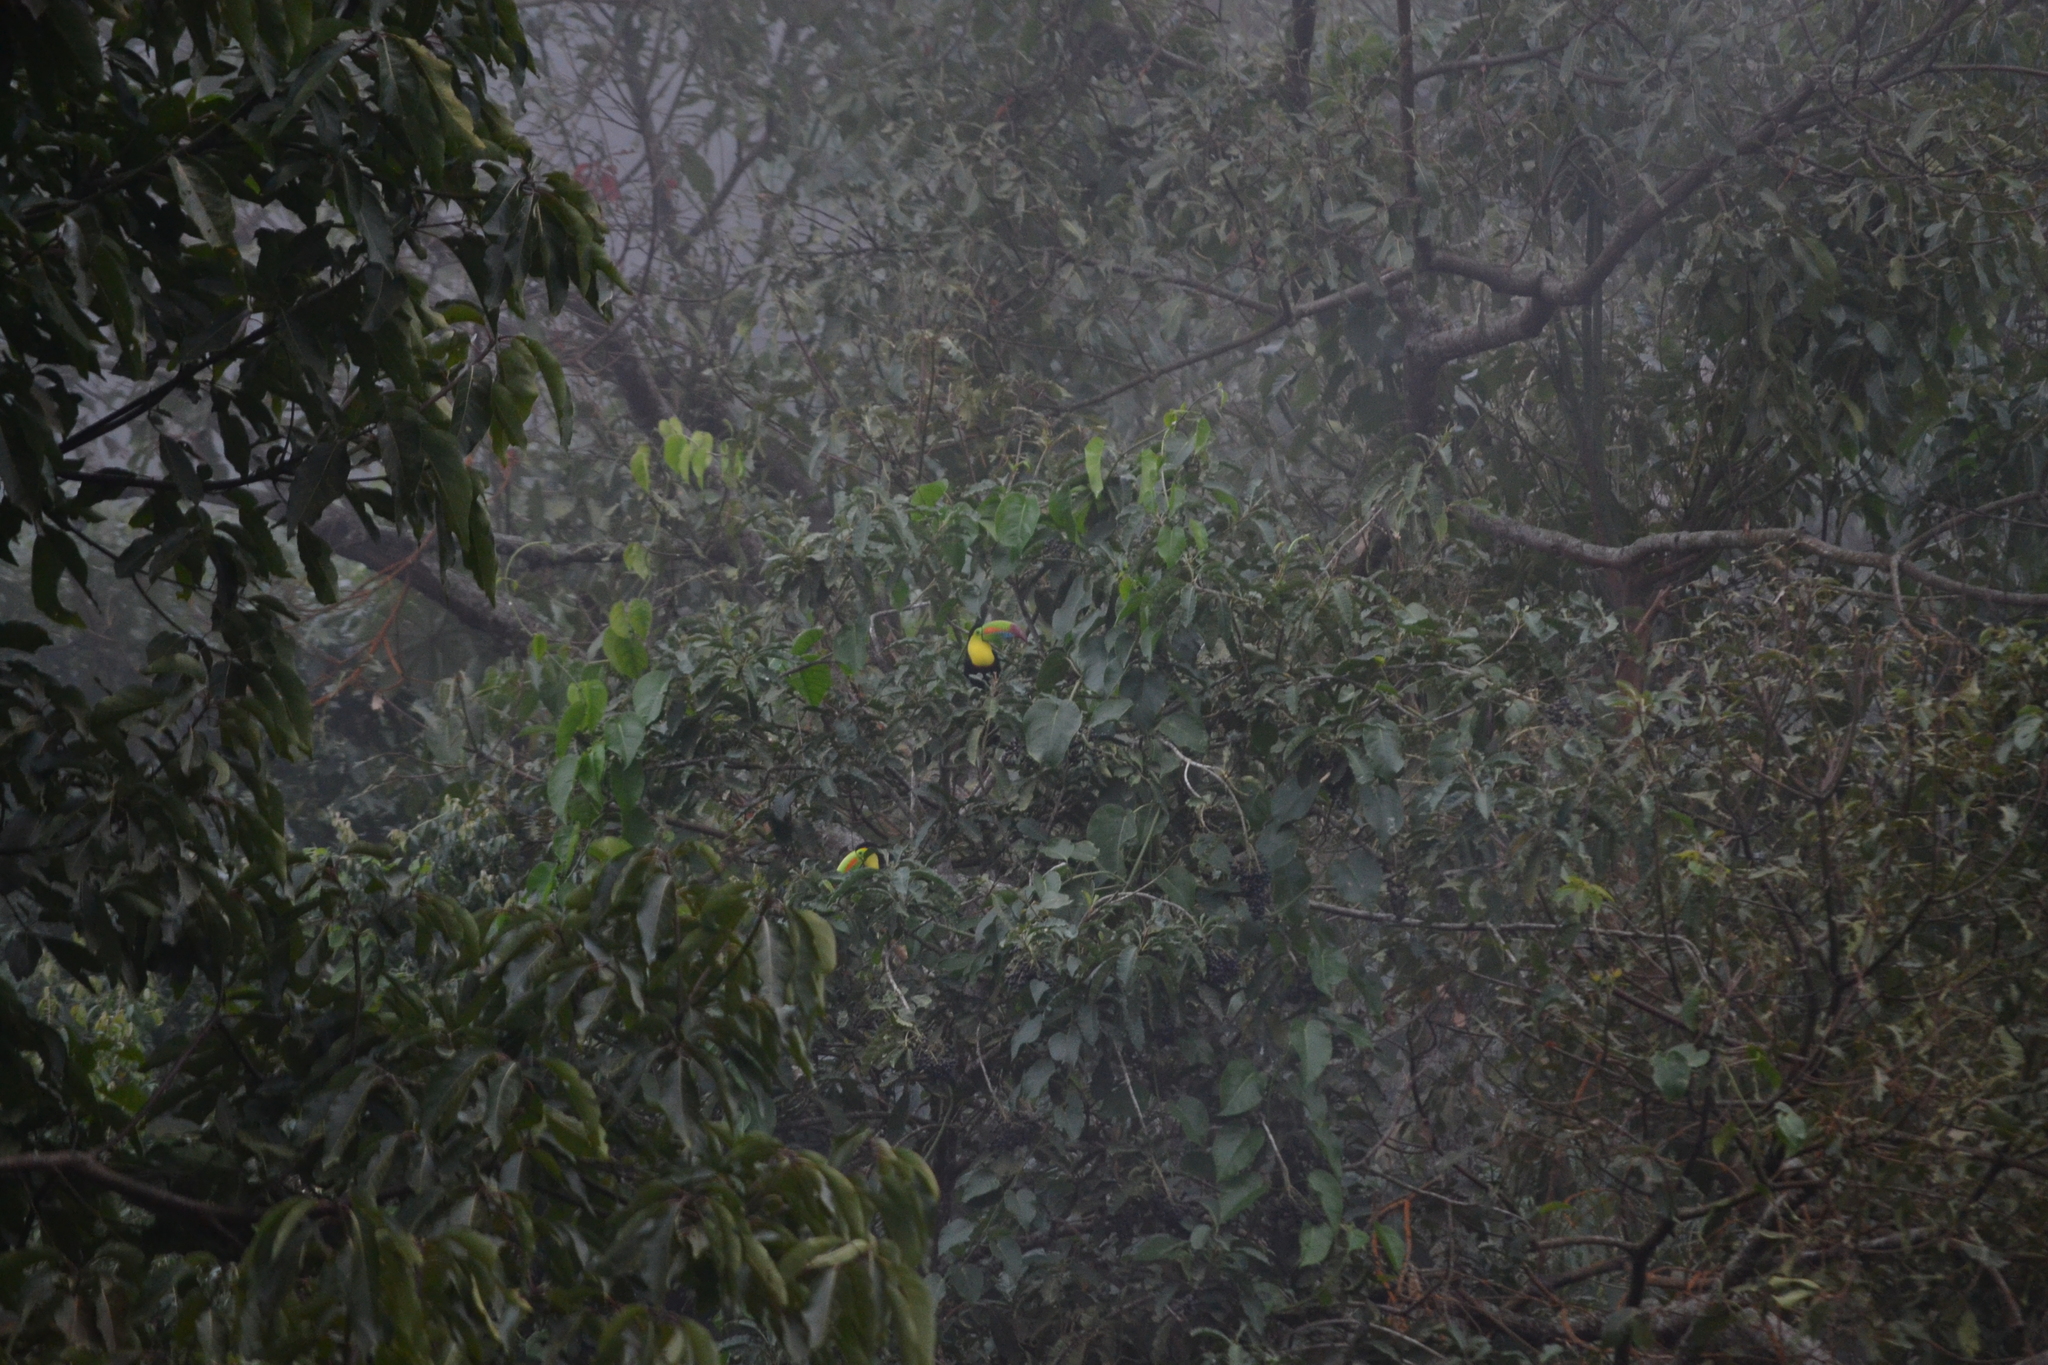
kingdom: Animalia
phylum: Chordata
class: Aves
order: Piciformes
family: Ramphastidae
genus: Ramphastos
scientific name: Ramphastos sulfuratus
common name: Keel-billed toucan
